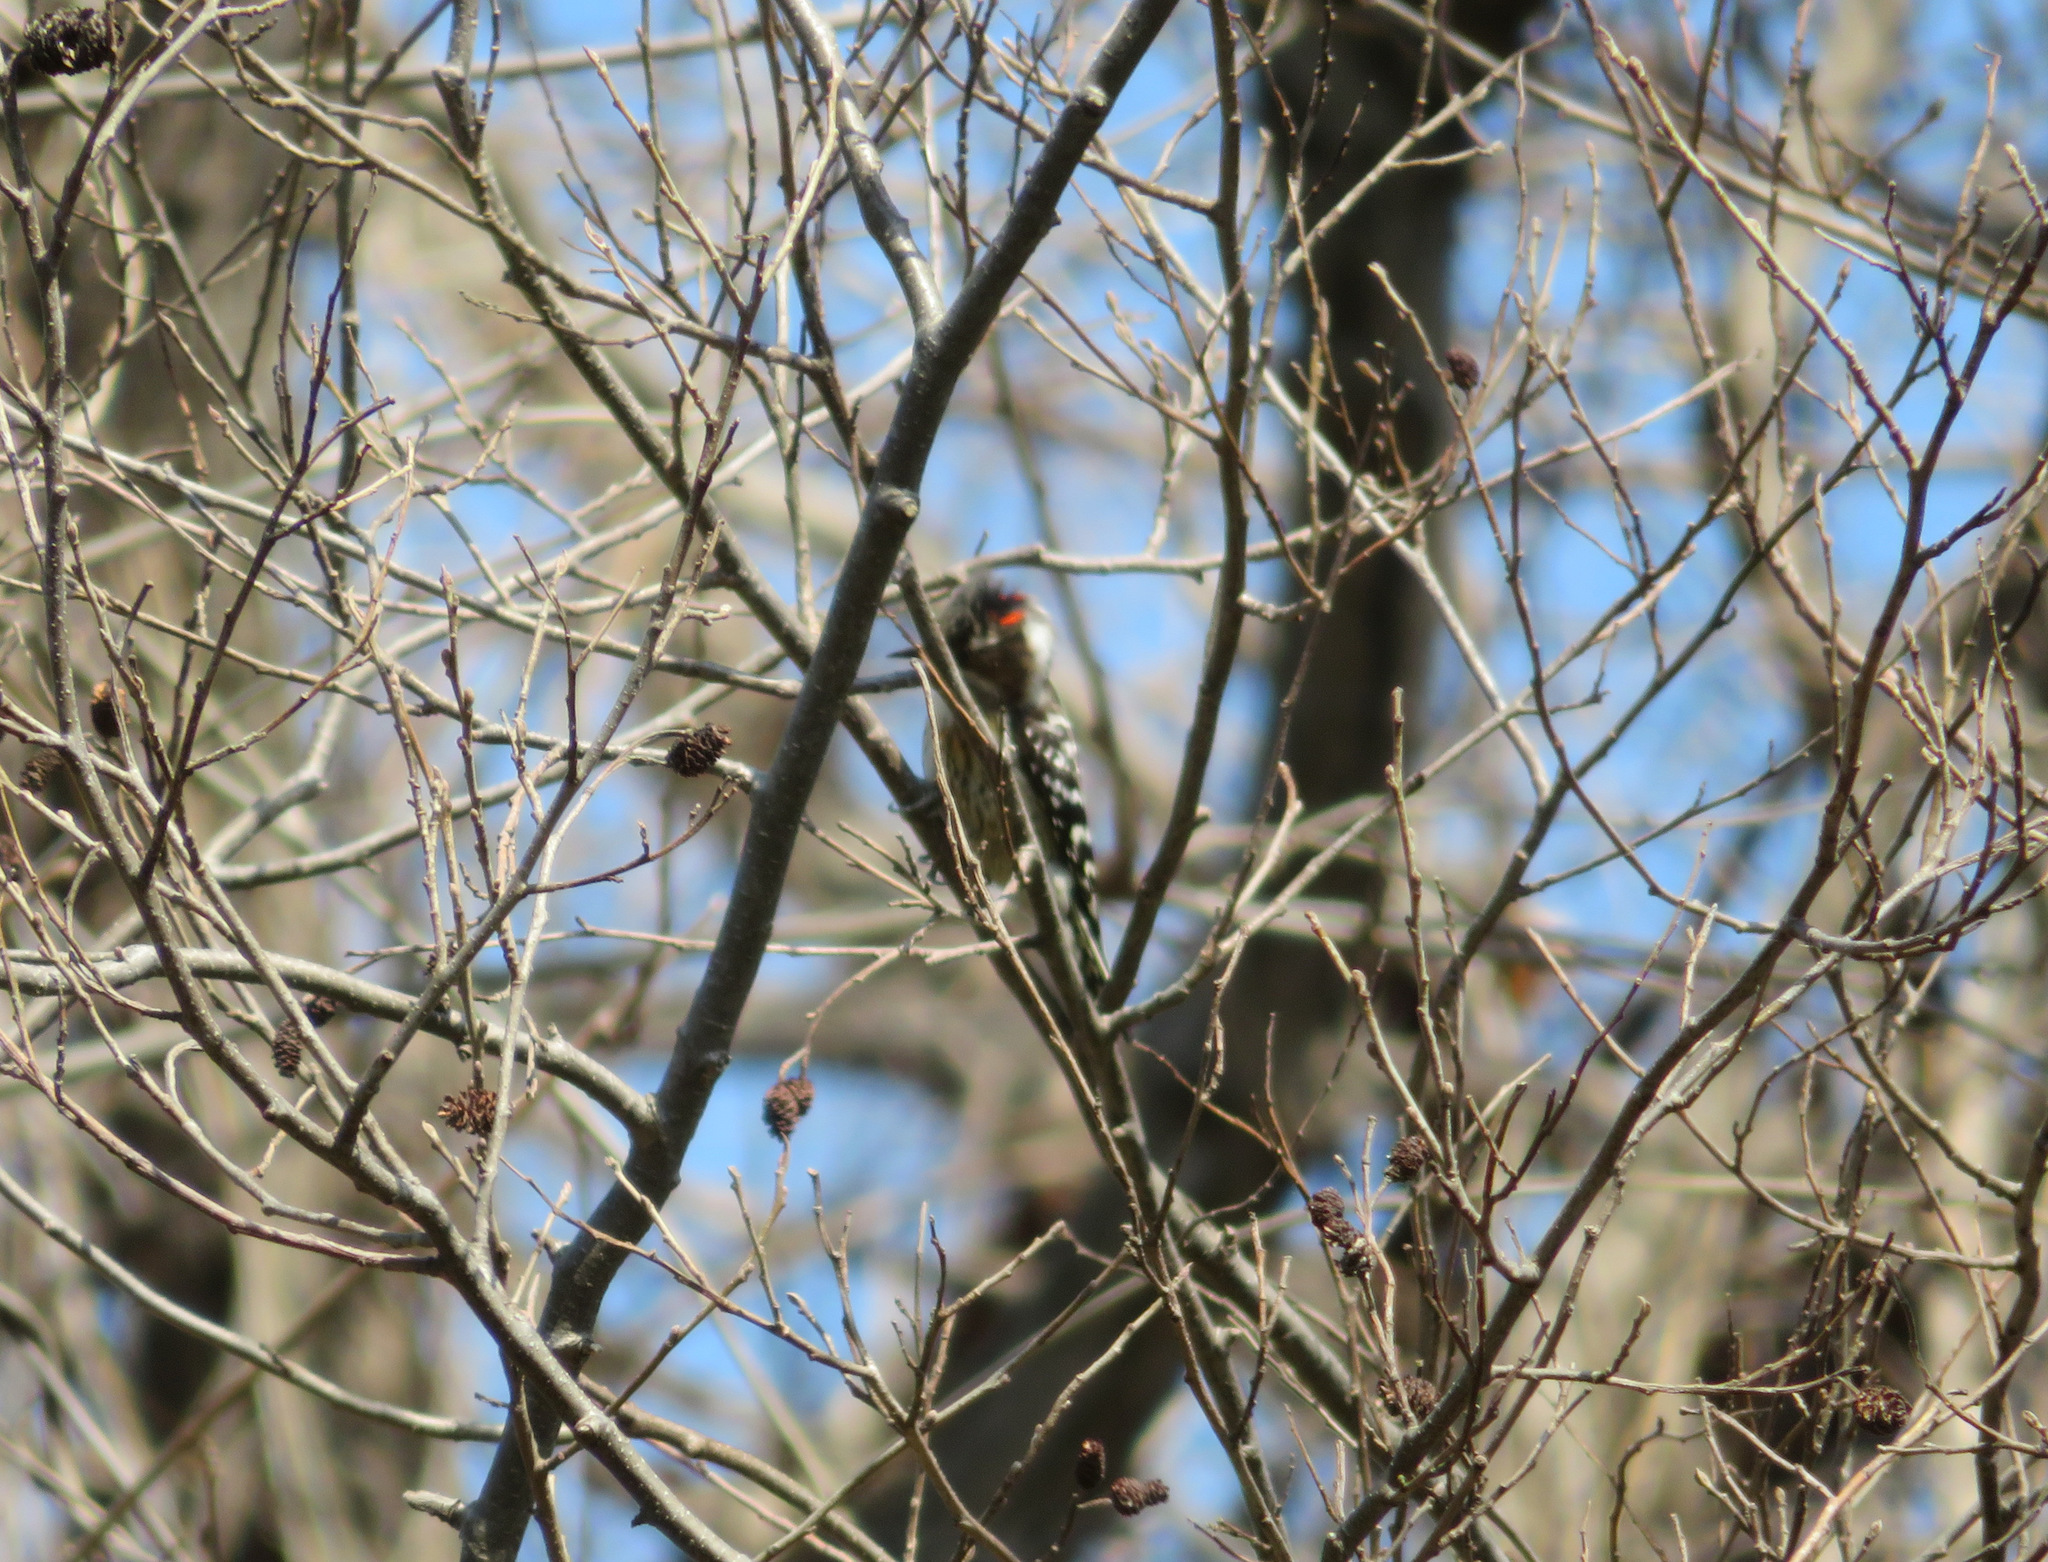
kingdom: Animalia
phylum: Chordata
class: Aves
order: Piciformes
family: Picidae
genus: Yungipicus
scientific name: Yungipicus kizuki
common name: Japanese pygmy woodpecker
